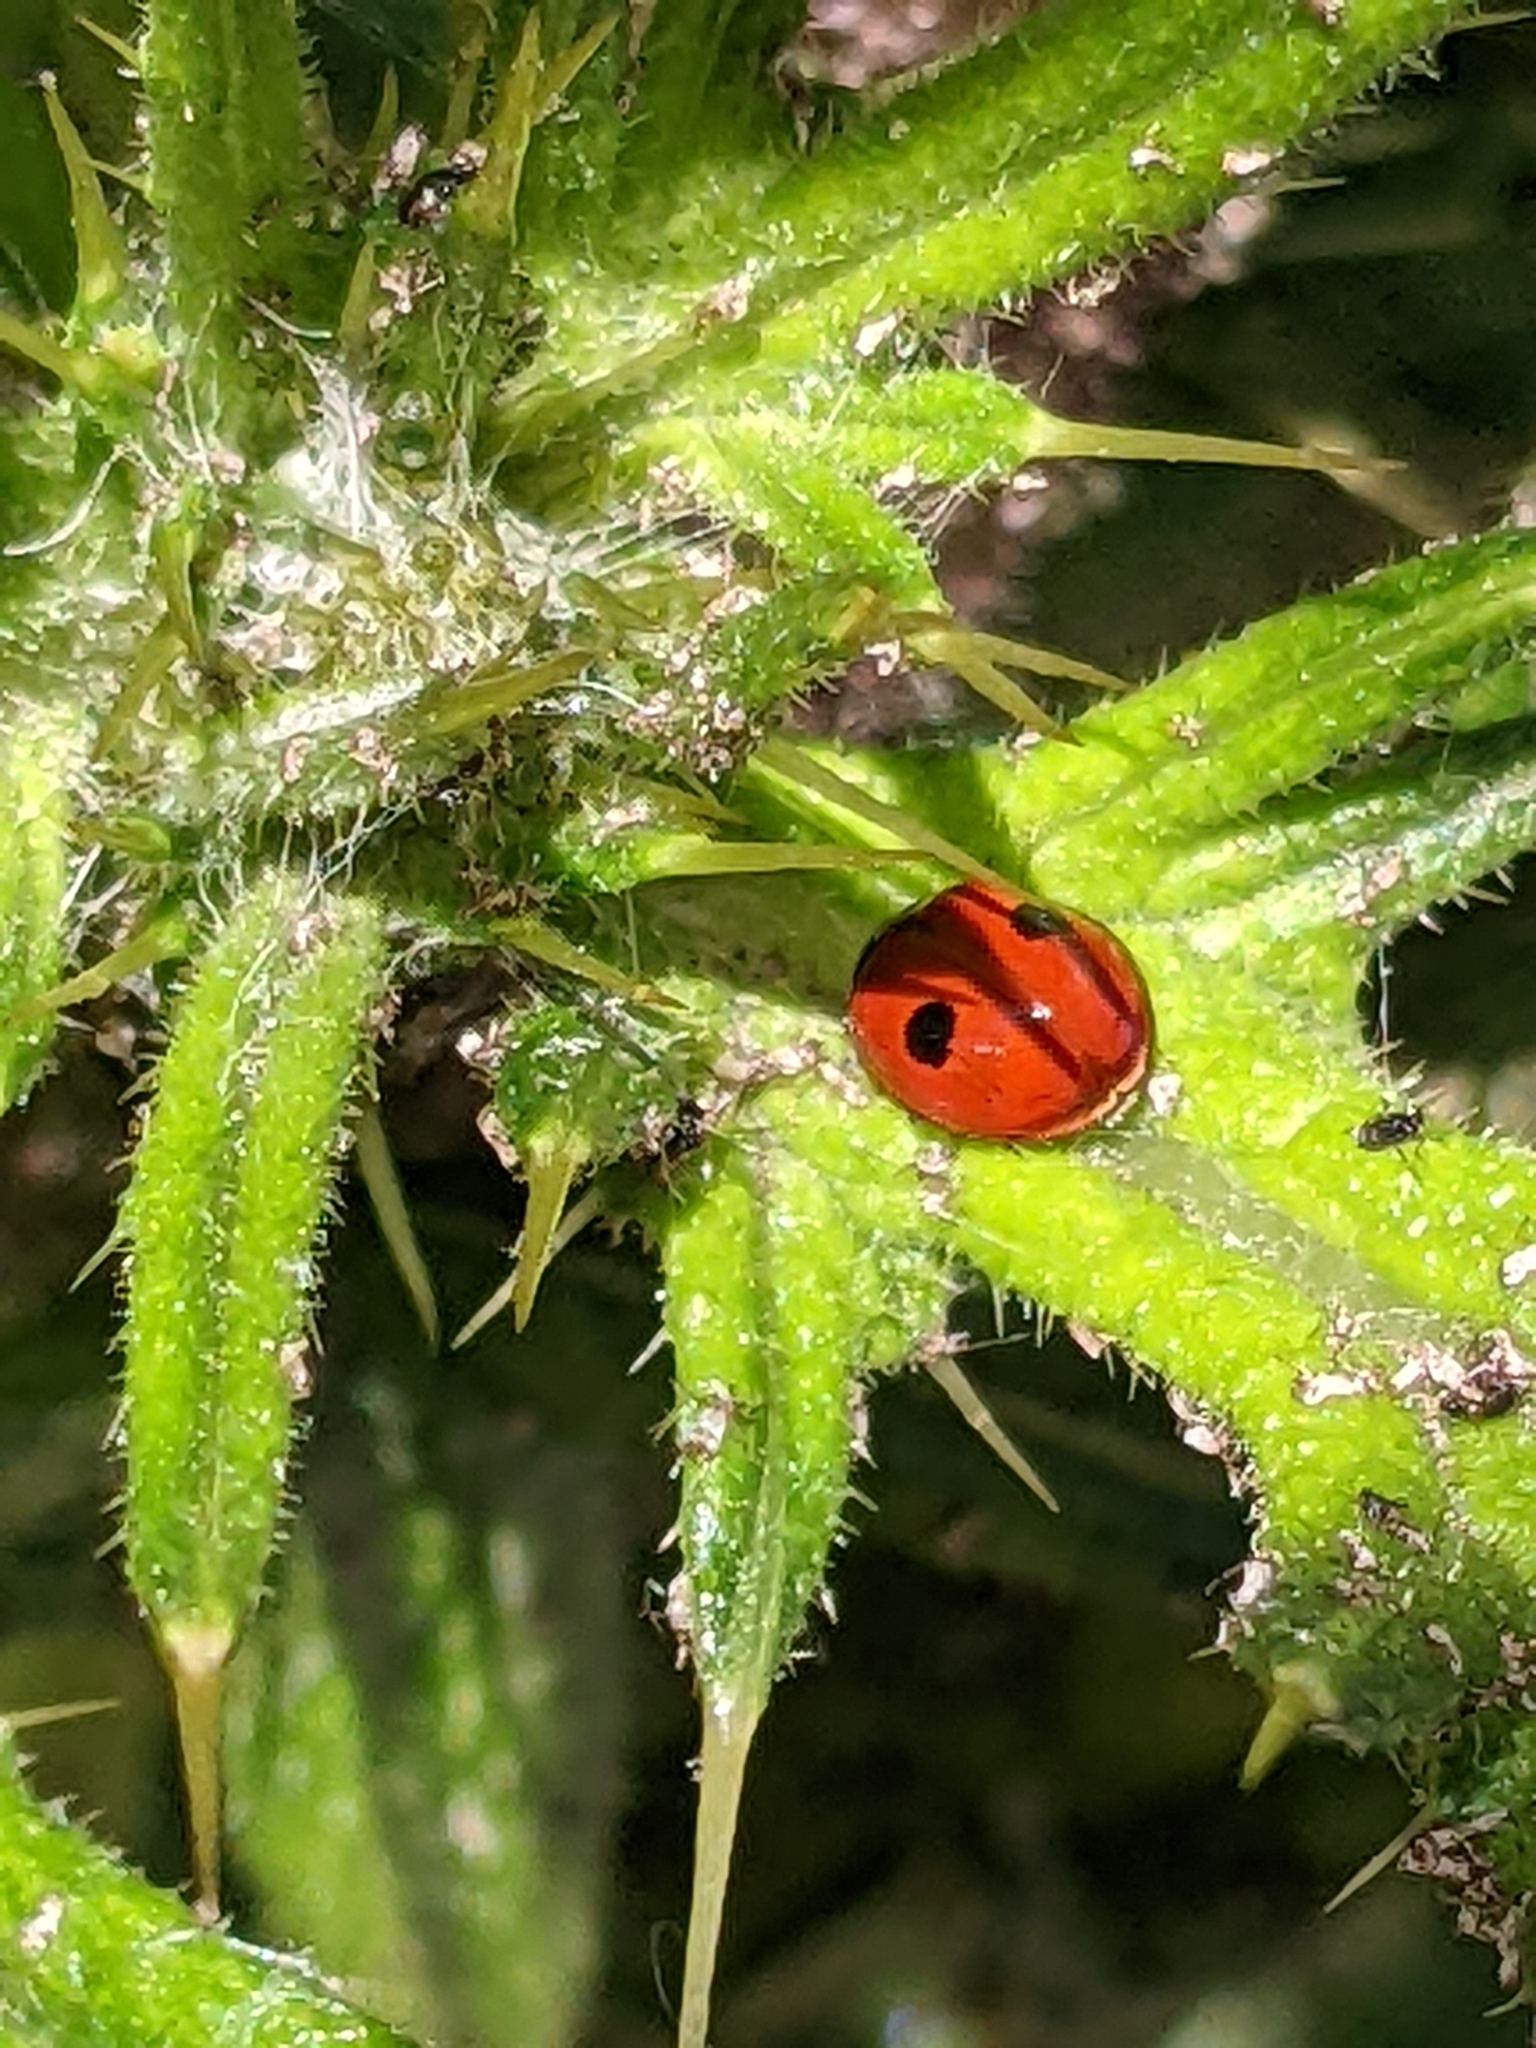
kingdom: Animalia
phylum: Arthropoda
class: Insecta
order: Coleoptera
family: Coccinellidae
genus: Adalia
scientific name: Adalia bipunctata
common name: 2-spot ladybird
